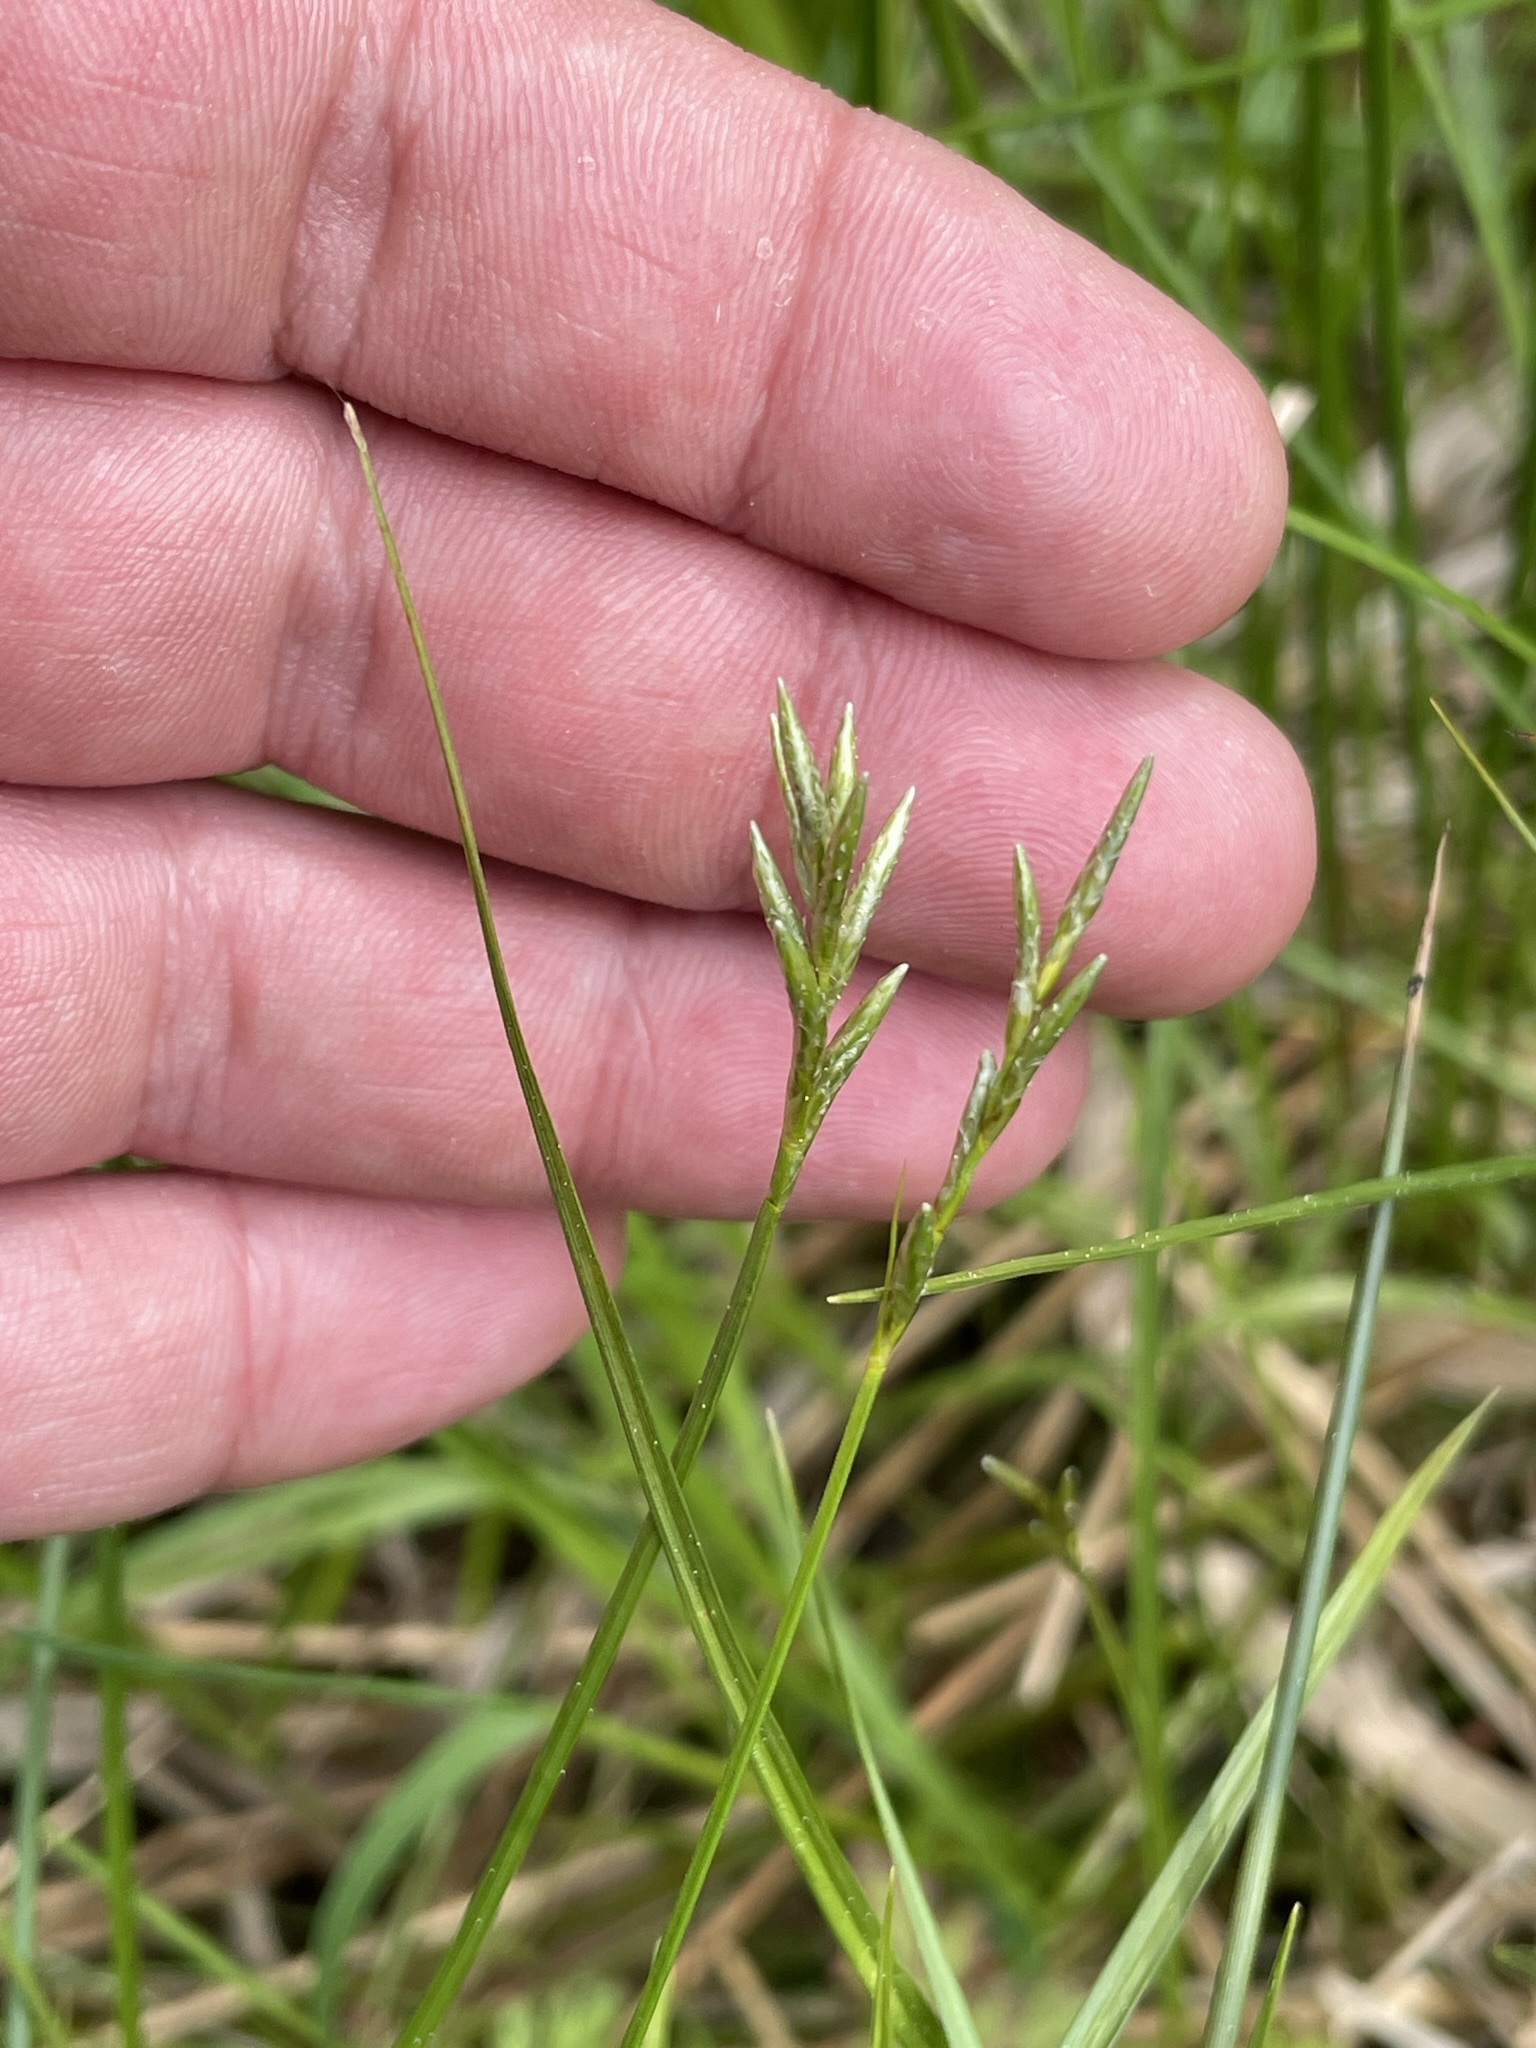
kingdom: Plantae
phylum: Tracheophyta
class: Liliopsida
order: Poales
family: Cyperaceae
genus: Carex
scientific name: Carex brizoides
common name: Quaking-grass sedge
